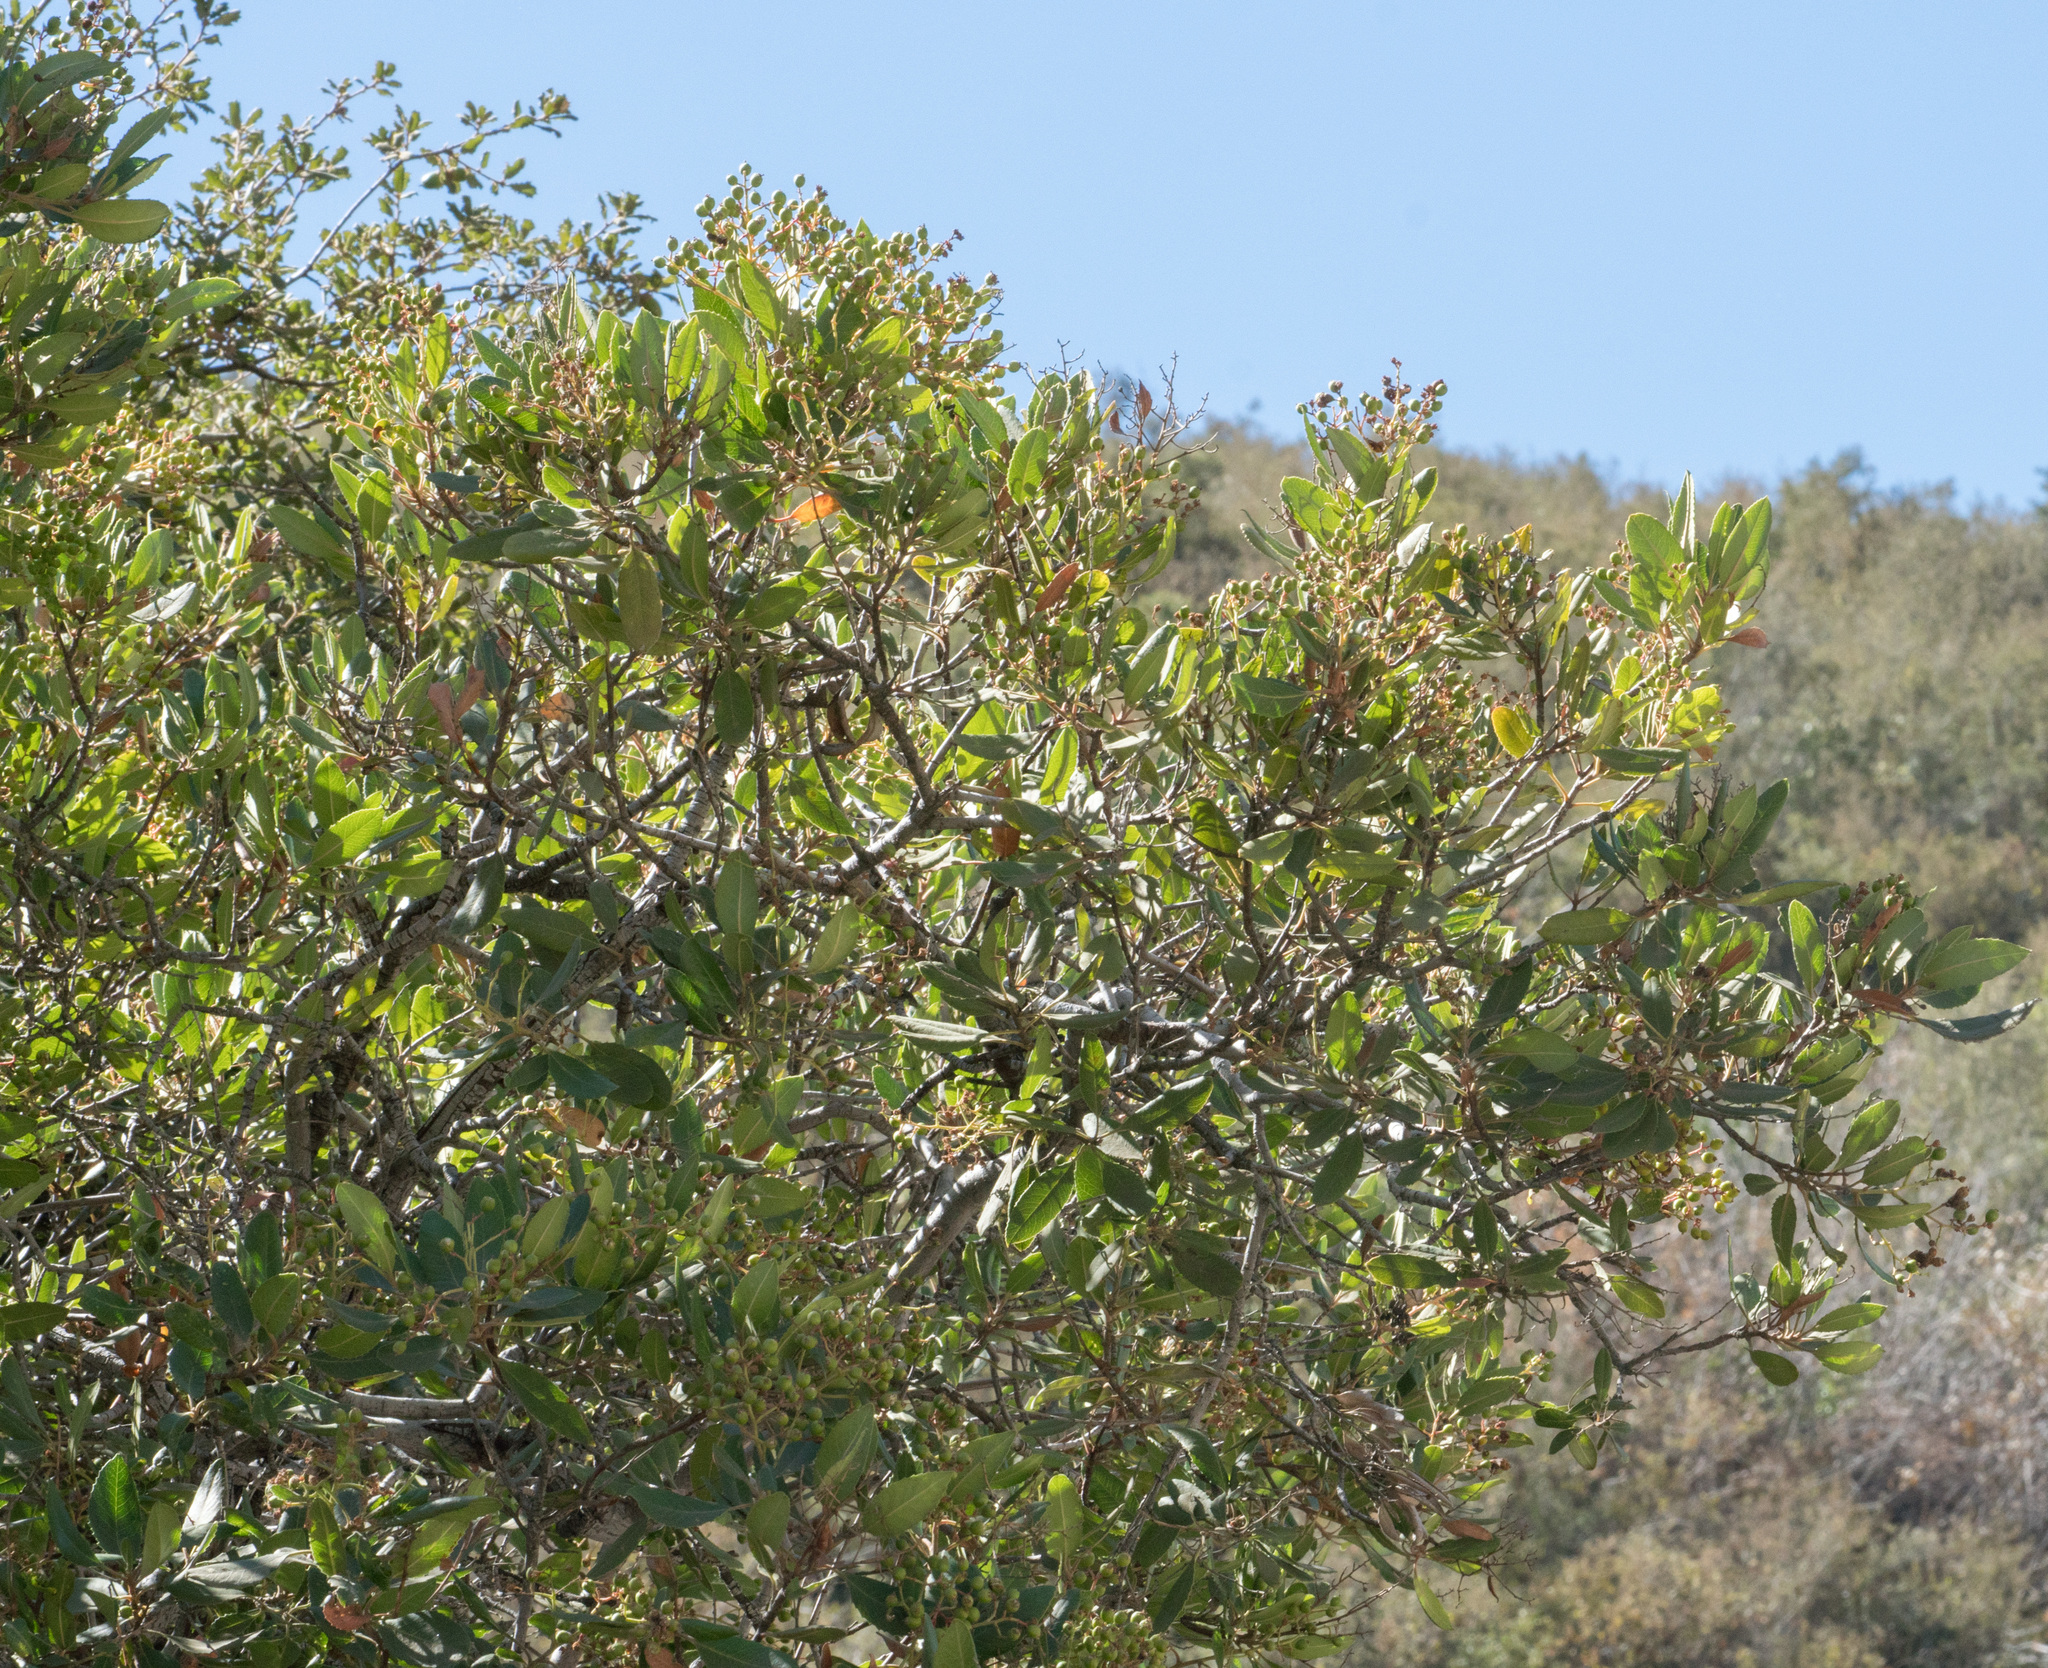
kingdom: Plantae
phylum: Tracheophyta
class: Magnoliopsida
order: Rosales
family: Rosaceae
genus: Heteromeles
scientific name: Heteromeles arbutifolia
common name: California-holly
